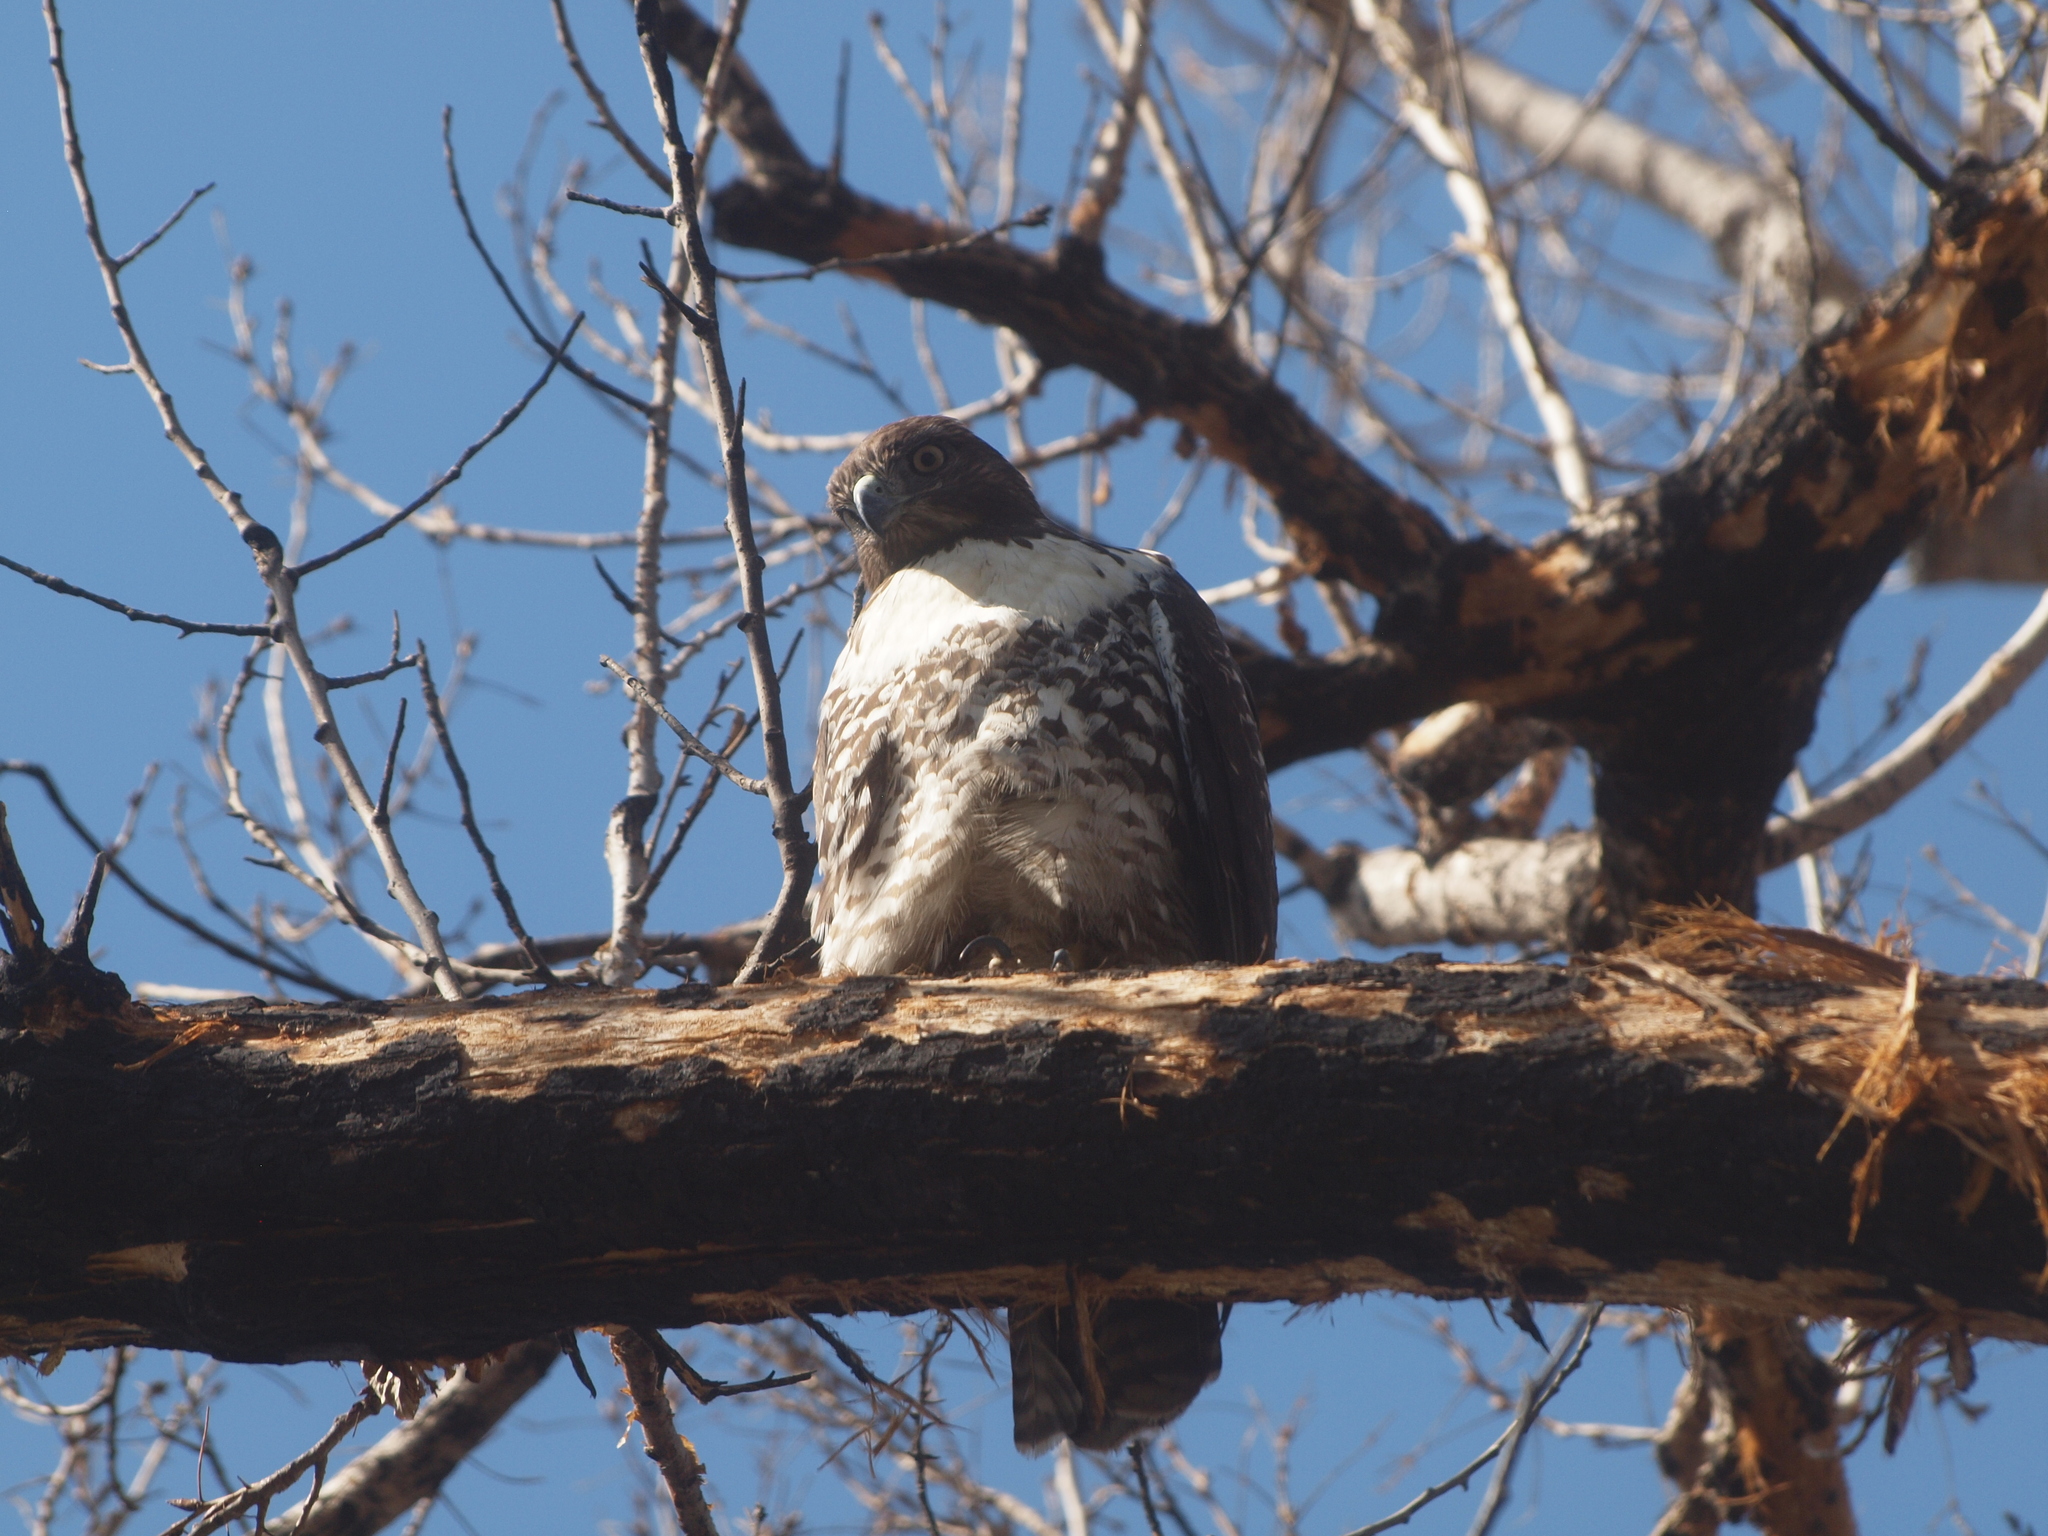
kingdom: Animalia
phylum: Chordata
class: Aves
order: Accipitriformes
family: Accipitridae
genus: Buteo
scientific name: Buteo jamaicensis
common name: Red-tailed hawk
